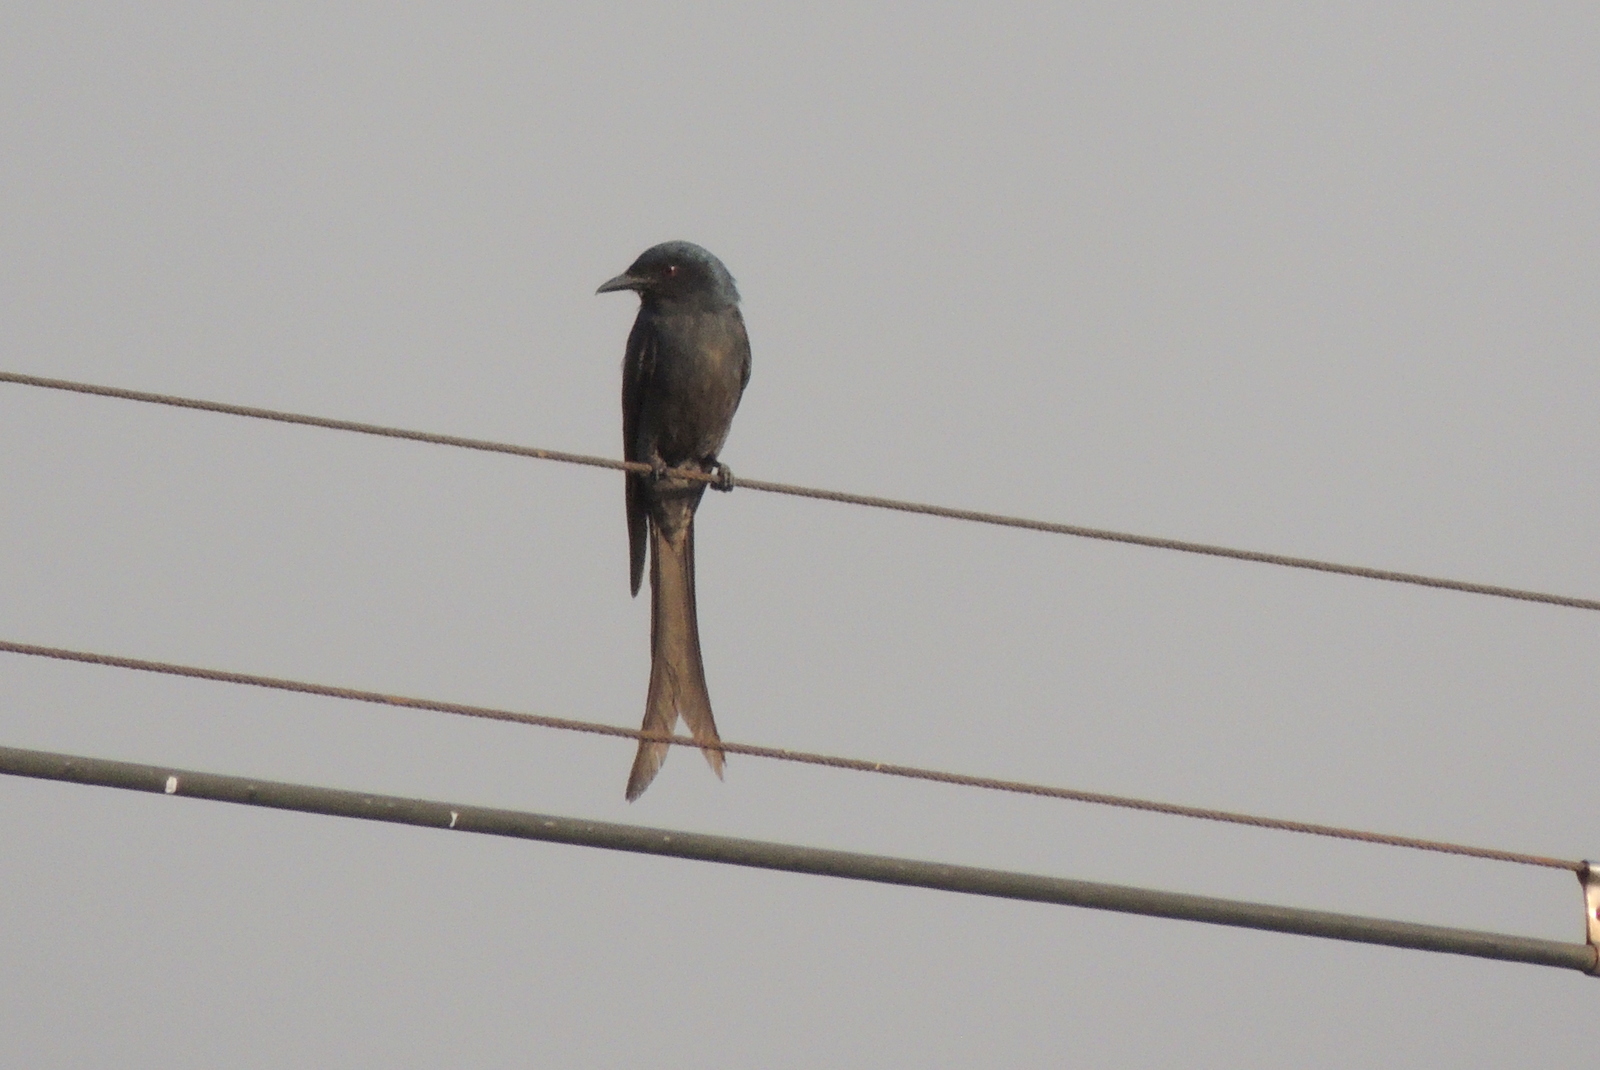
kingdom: Animalia
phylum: Chordata
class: Aves
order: Passeriformes
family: Dicruridae
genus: Dicrurus
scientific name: Dicrurus leucophaeus
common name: Ashy drongo
